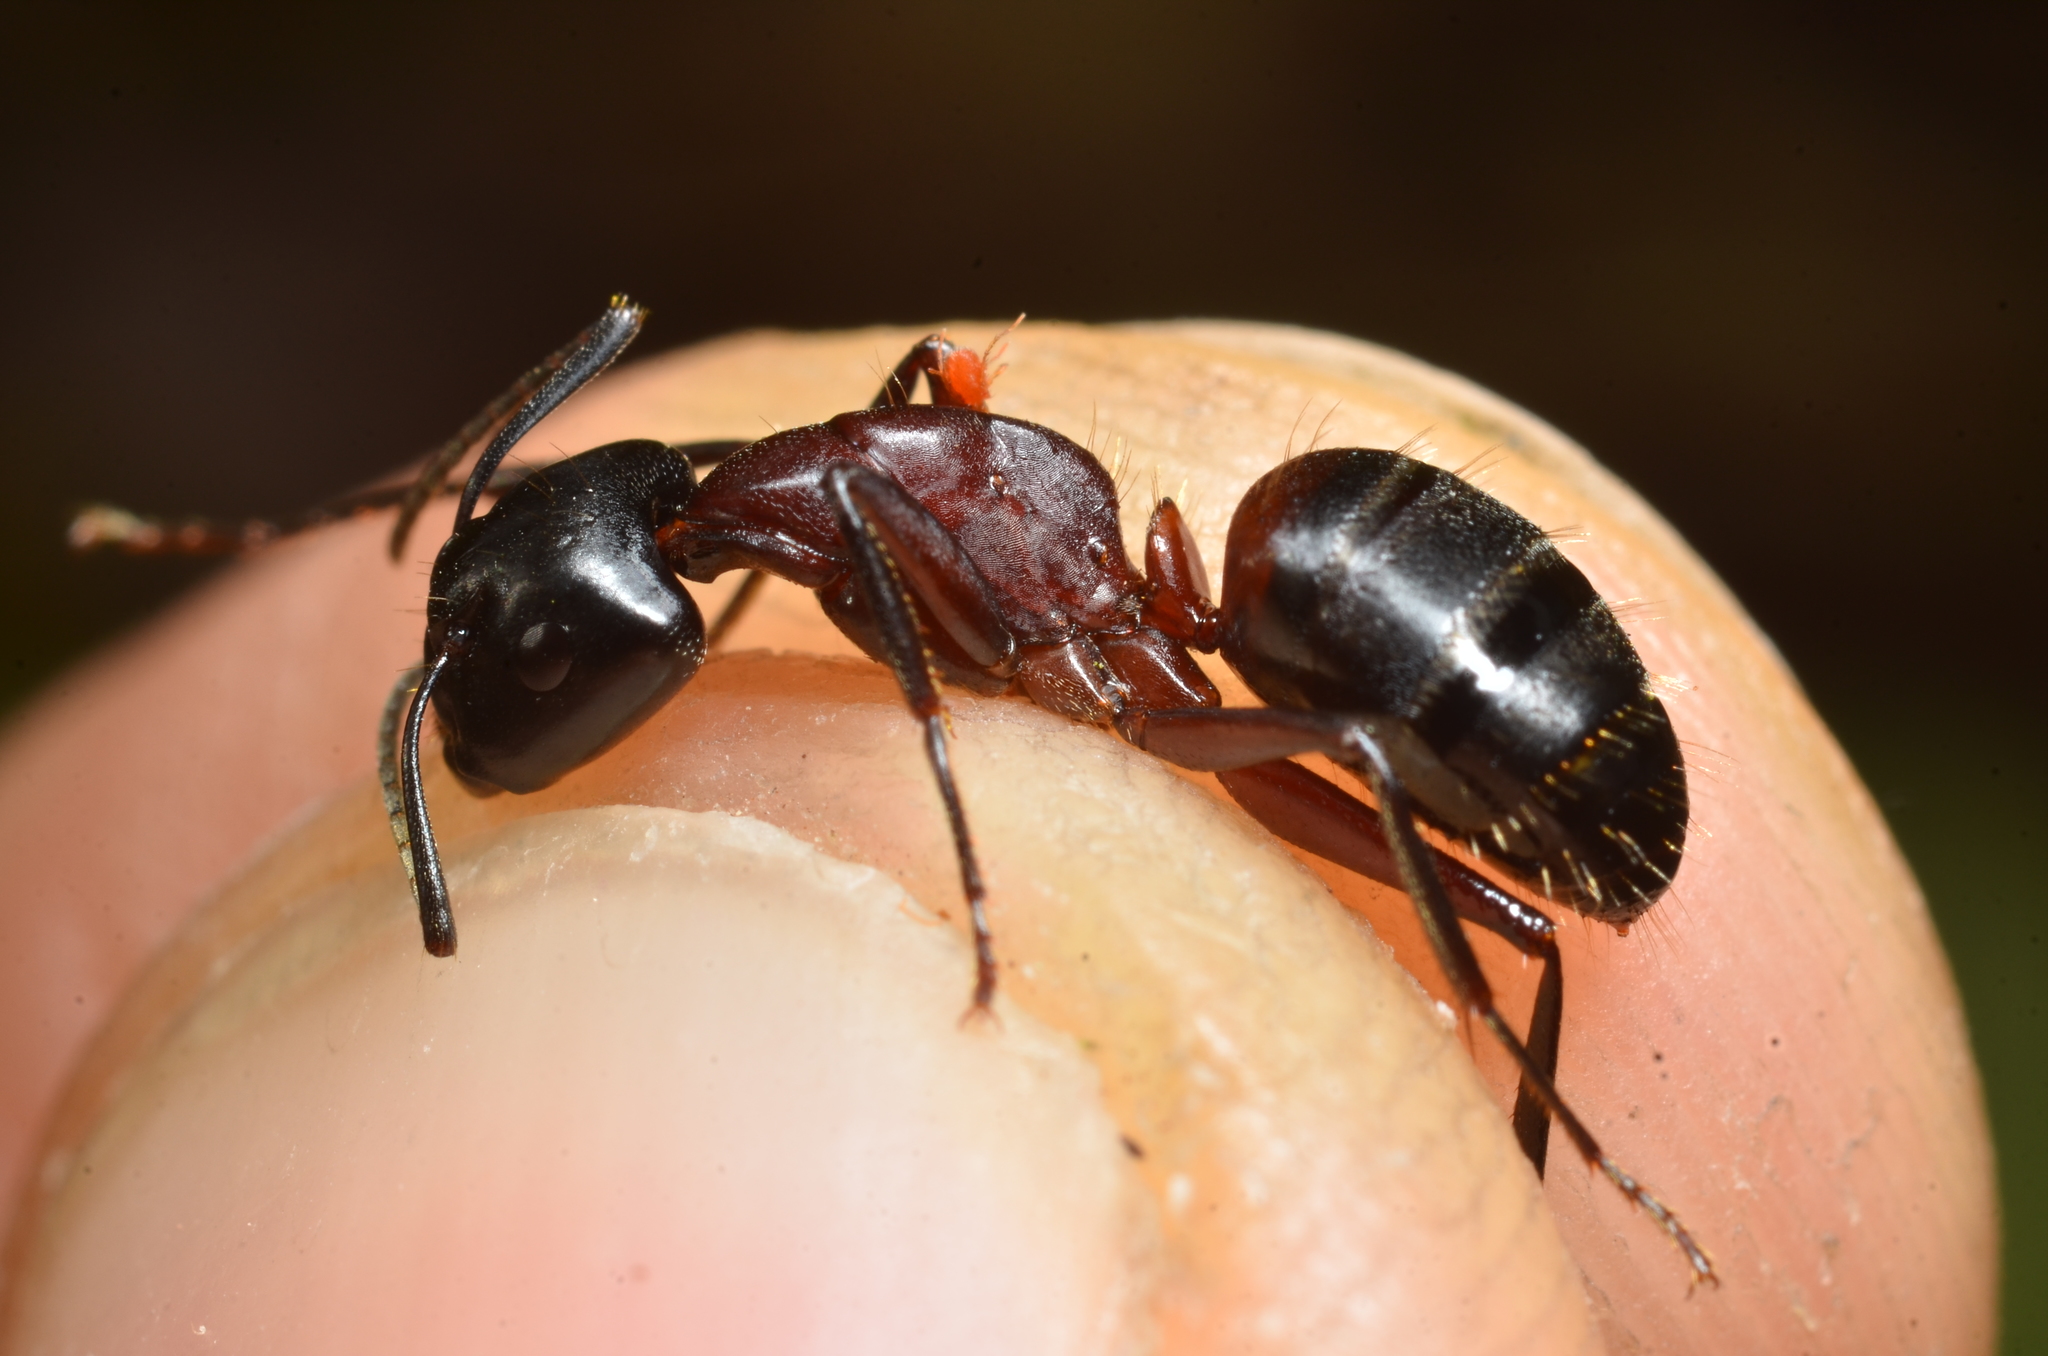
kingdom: Animalia
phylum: Arthropoda
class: Insecta
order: Hymenoptera
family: Formicidae
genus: Camponotus
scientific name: Camponotus ligniperdus
